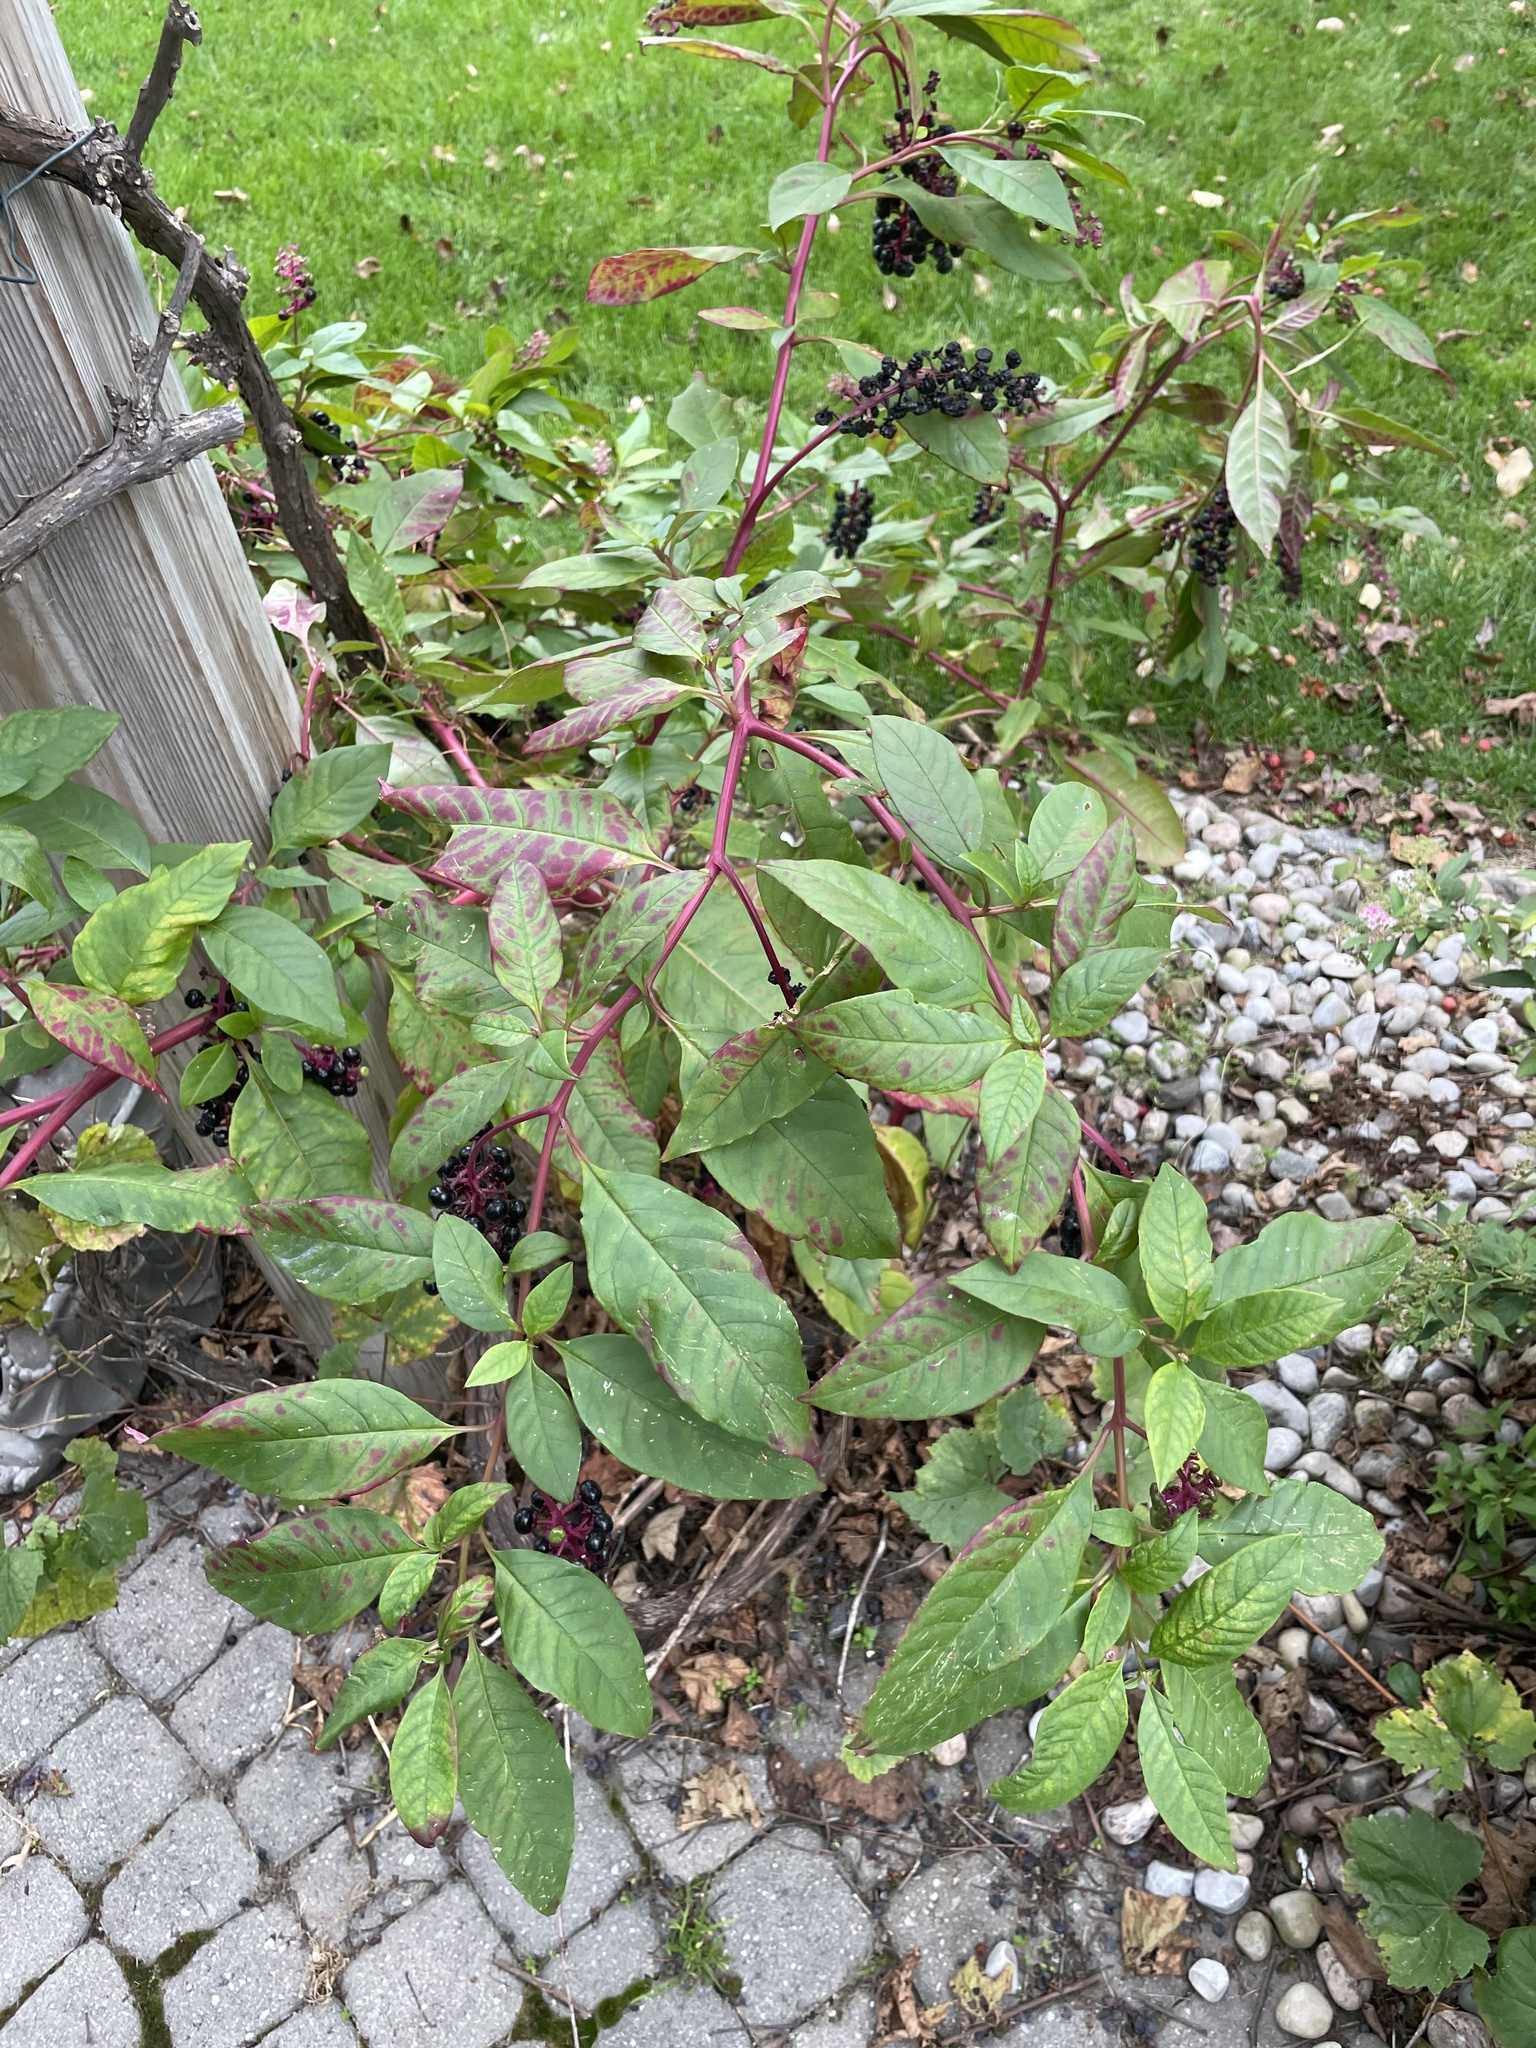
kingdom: Plantae
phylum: Tracheophyta
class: Magnoliopsida
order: Caryophyllales
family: Phytolaccaceae
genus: Phytolacca
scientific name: Phytolacca americana
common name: American pokeweed
